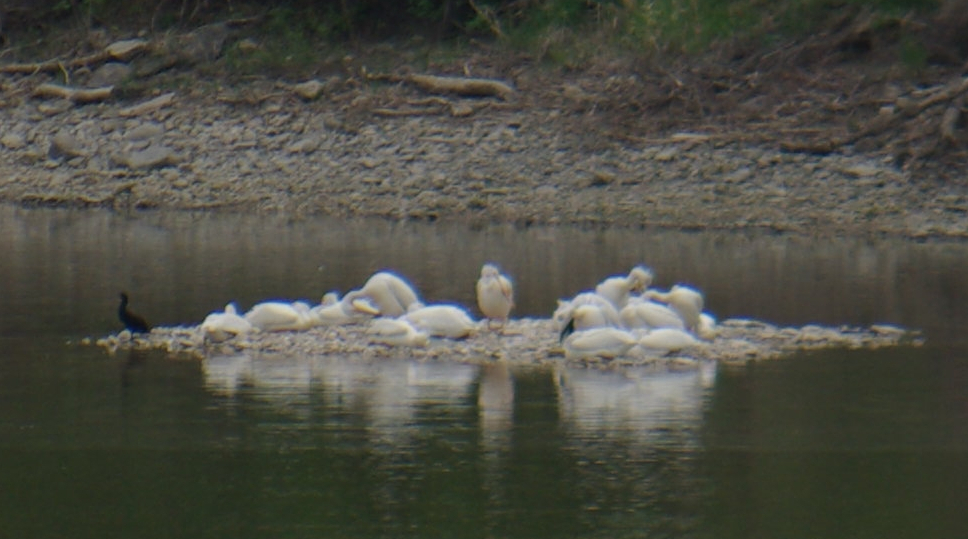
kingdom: Animalia
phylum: Chordata
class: Aves
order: Suliformes
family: Phalacrocoracidae
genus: Phalacrocorax
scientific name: Phalacrocorax auritus
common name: Double-crested cormorant
